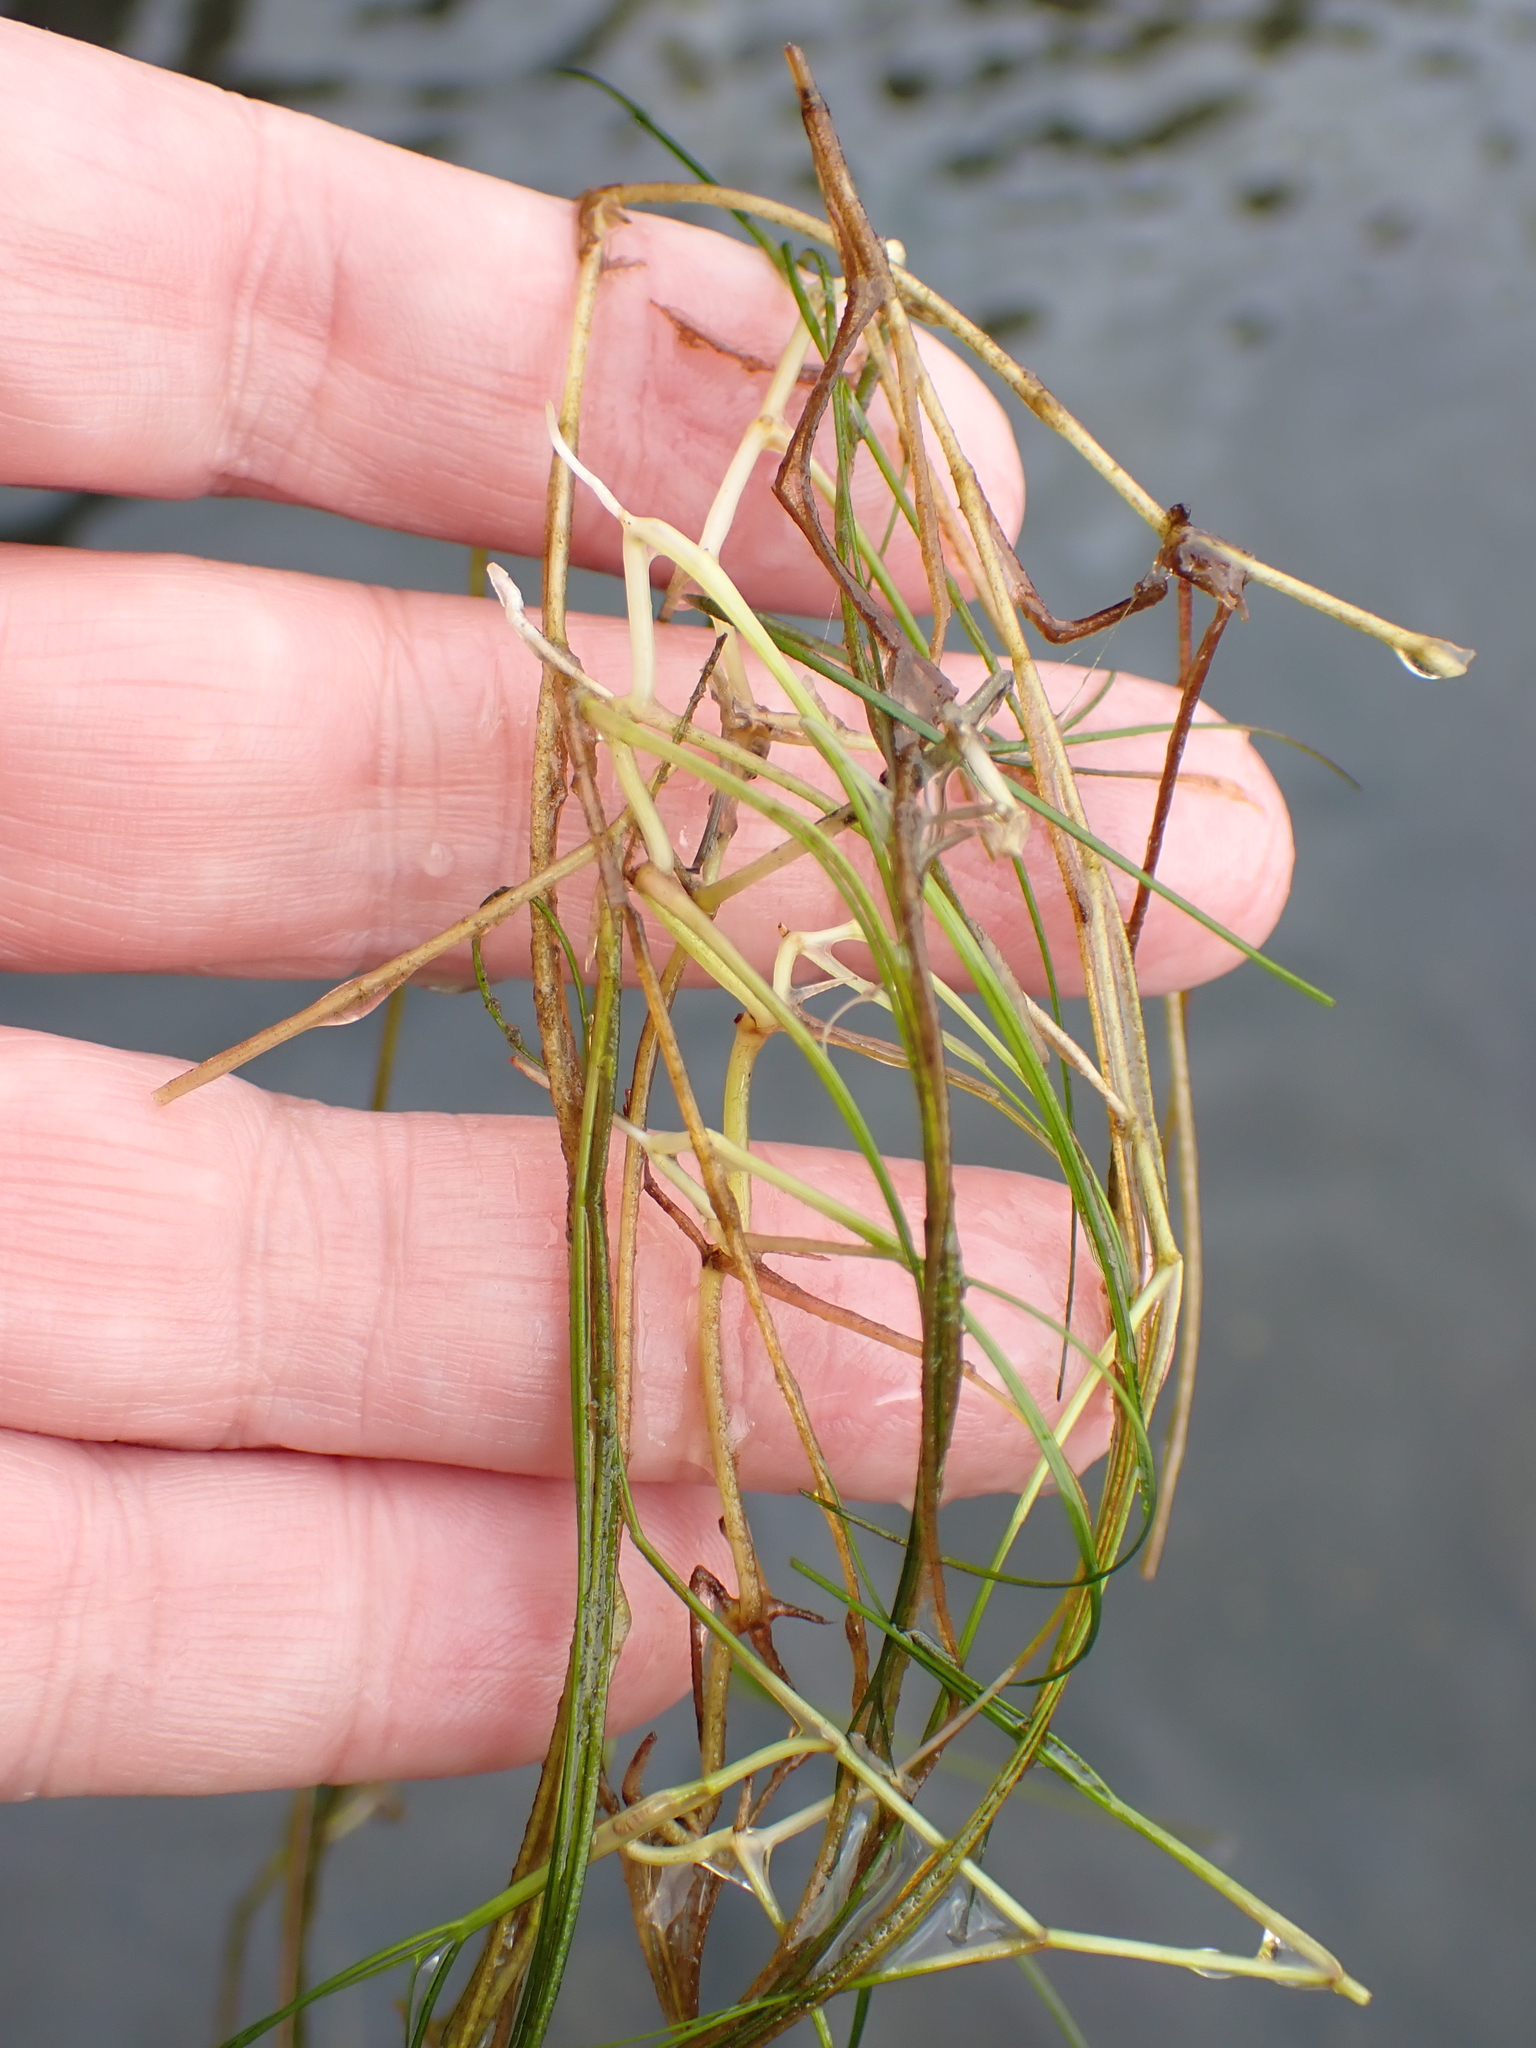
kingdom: Plantae
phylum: Tracheophyta
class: Liliopsida
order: Alismatales
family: Potamogetonaceae
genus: Stuckenia
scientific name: Stuckenia pectinata
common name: Sago pondweed
